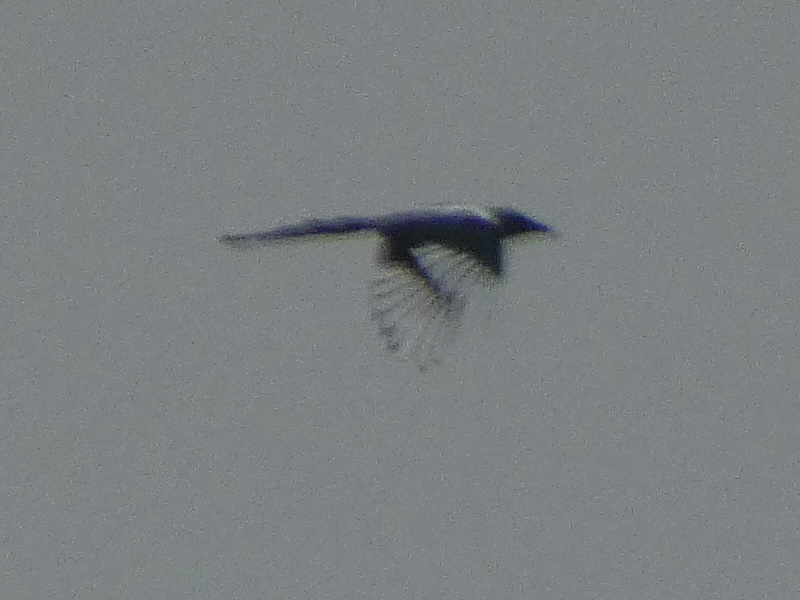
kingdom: Animalia
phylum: Chordata
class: Aves
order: Passeriformes
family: Corvidae
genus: Pica
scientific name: Pica pica
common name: Eurasian magpie
